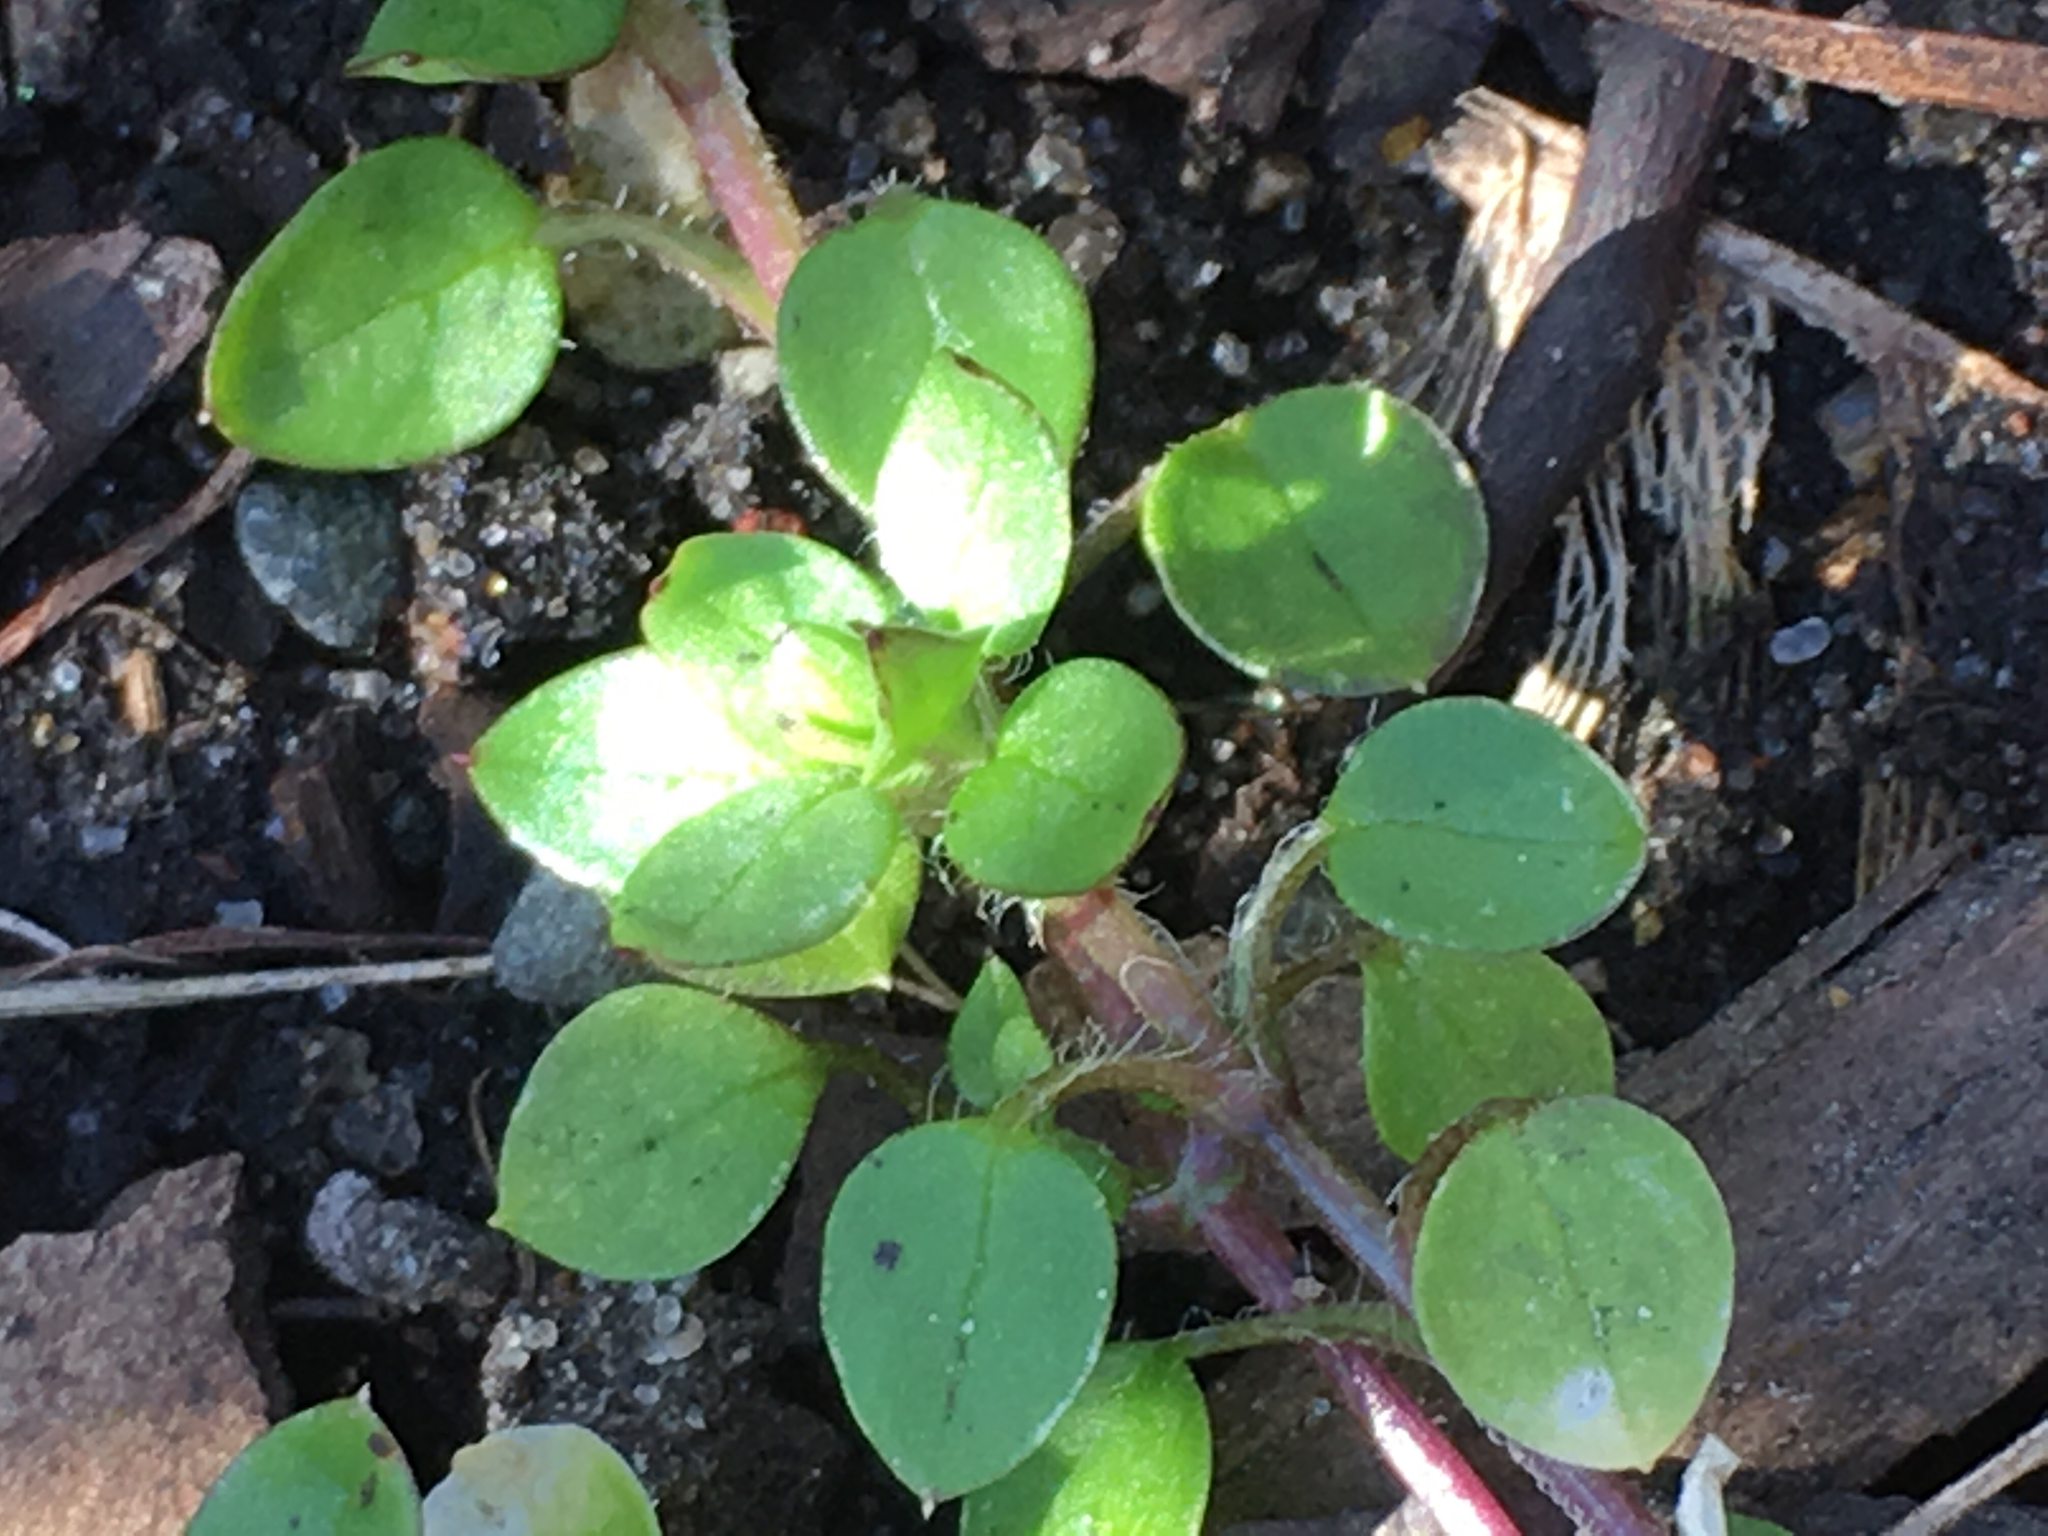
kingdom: Plantae
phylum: Tracheophyta
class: Magnoliopsida
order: Caryophyllales
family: Caryophyllaceae
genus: Stellaria
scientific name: Stellaria media
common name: Common chickweed
